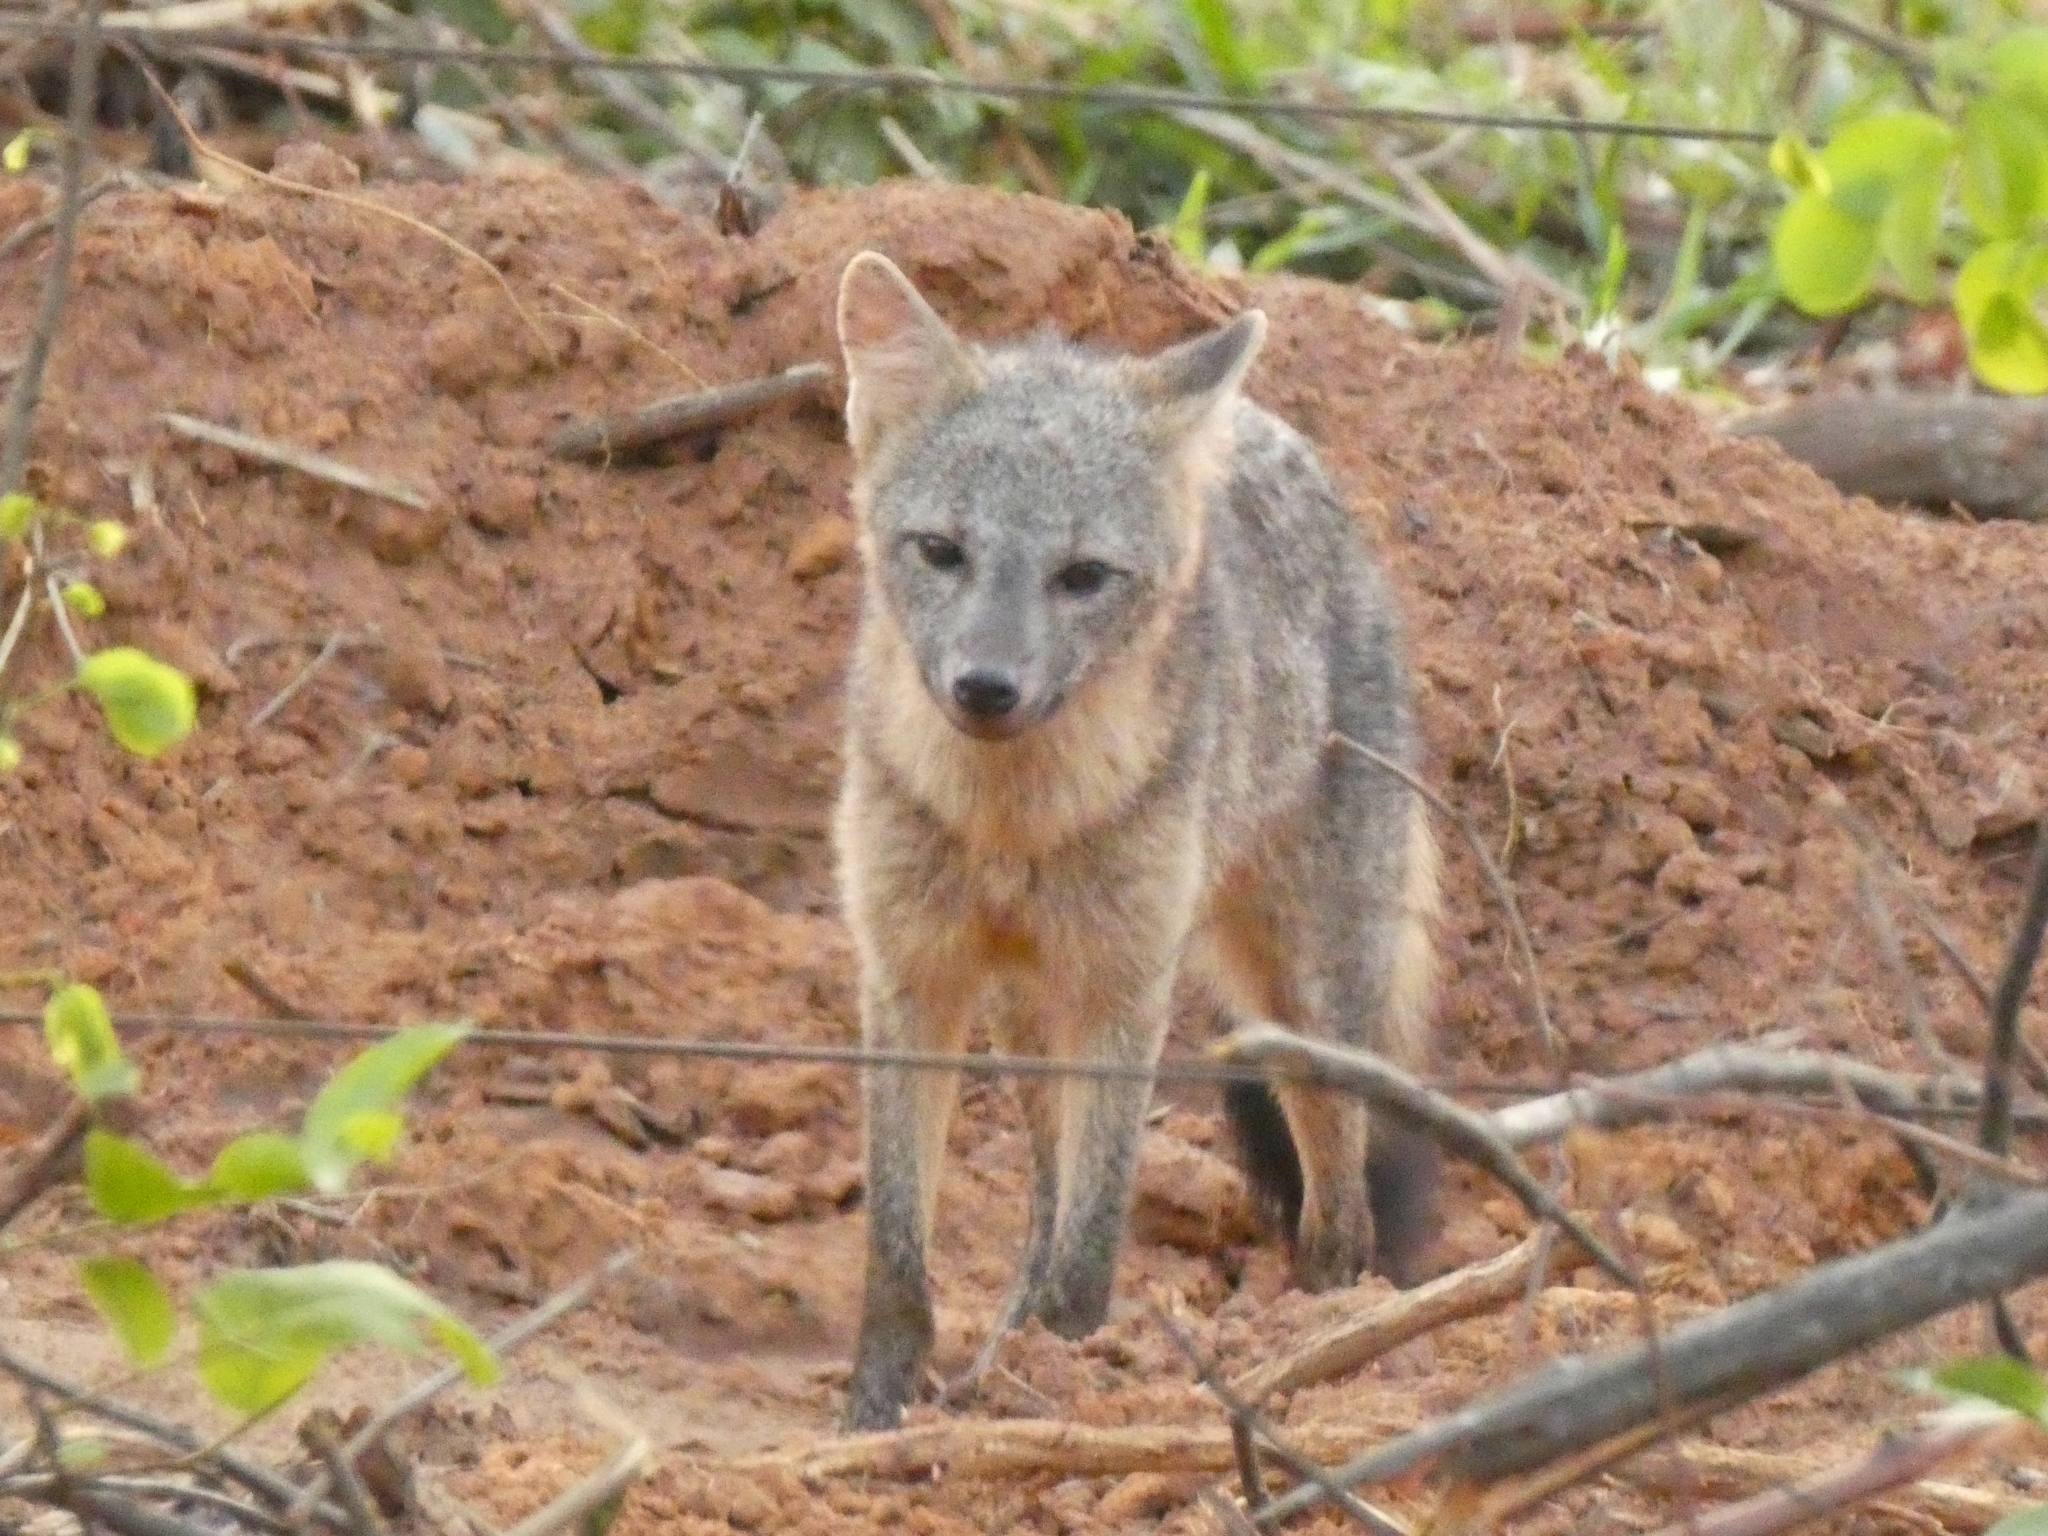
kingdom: Animalia
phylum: Chordata
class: Mammalia
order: Carnivora
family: Canidae
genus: Cerdocyon
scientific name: Cerdocyon thous
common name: Crab-eating fox
